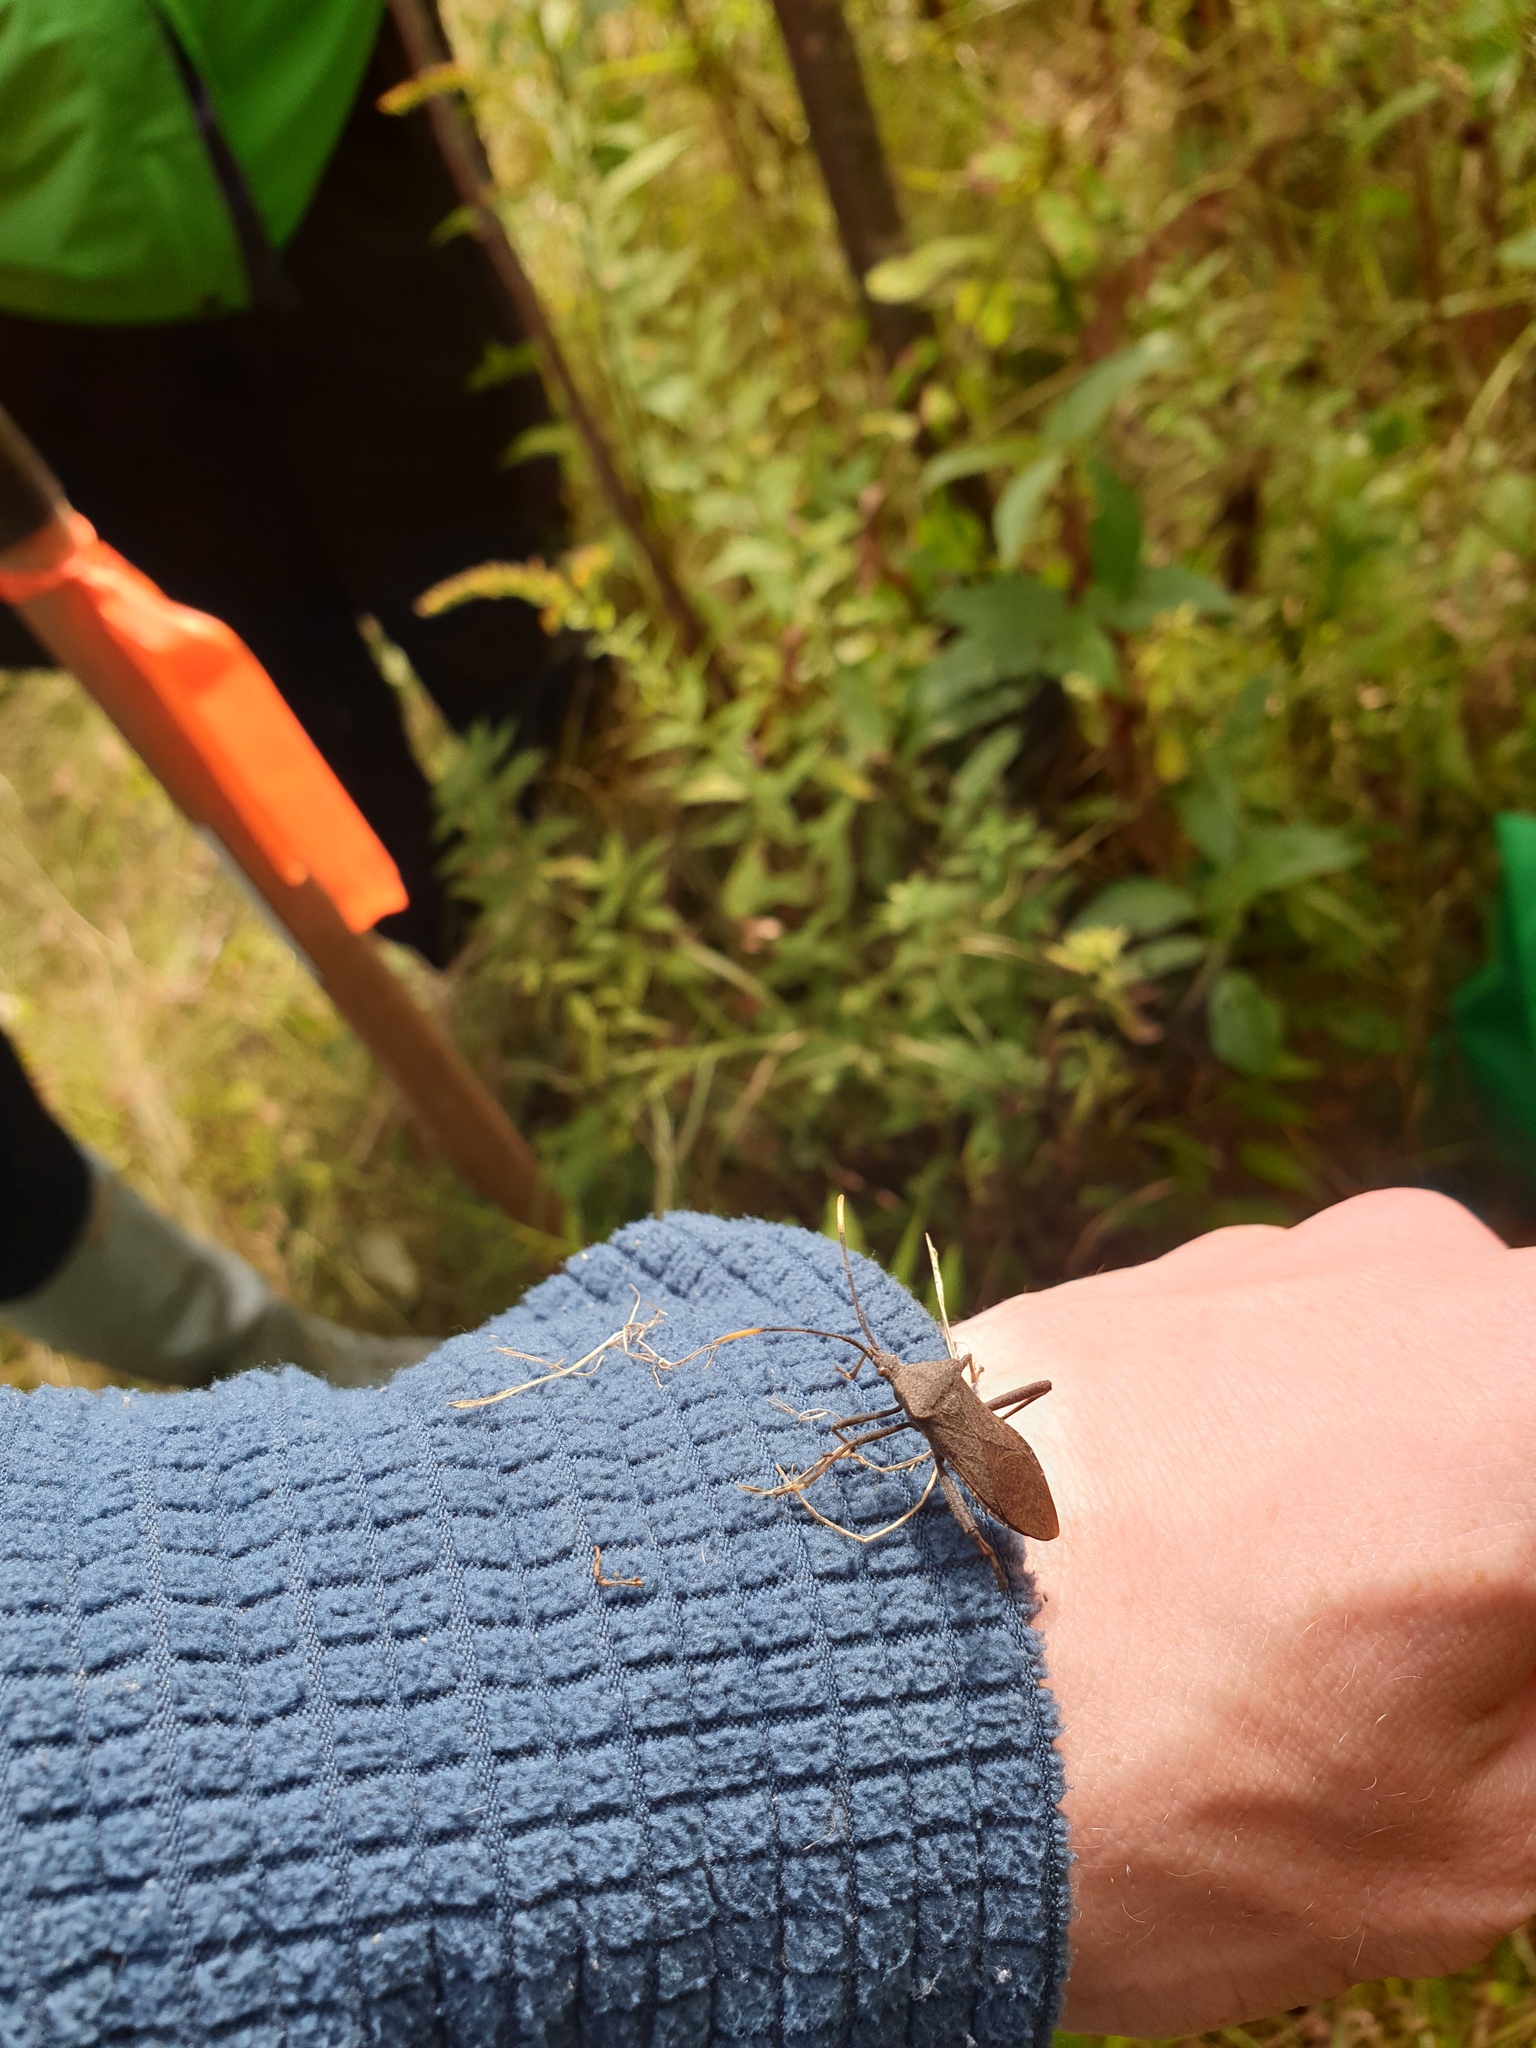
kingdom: Animalia
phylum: Arthropoda
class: Insecta
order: Hemiptera
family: Coreidae
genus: Acanthocephala
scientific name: Acanthocephala terminalis
